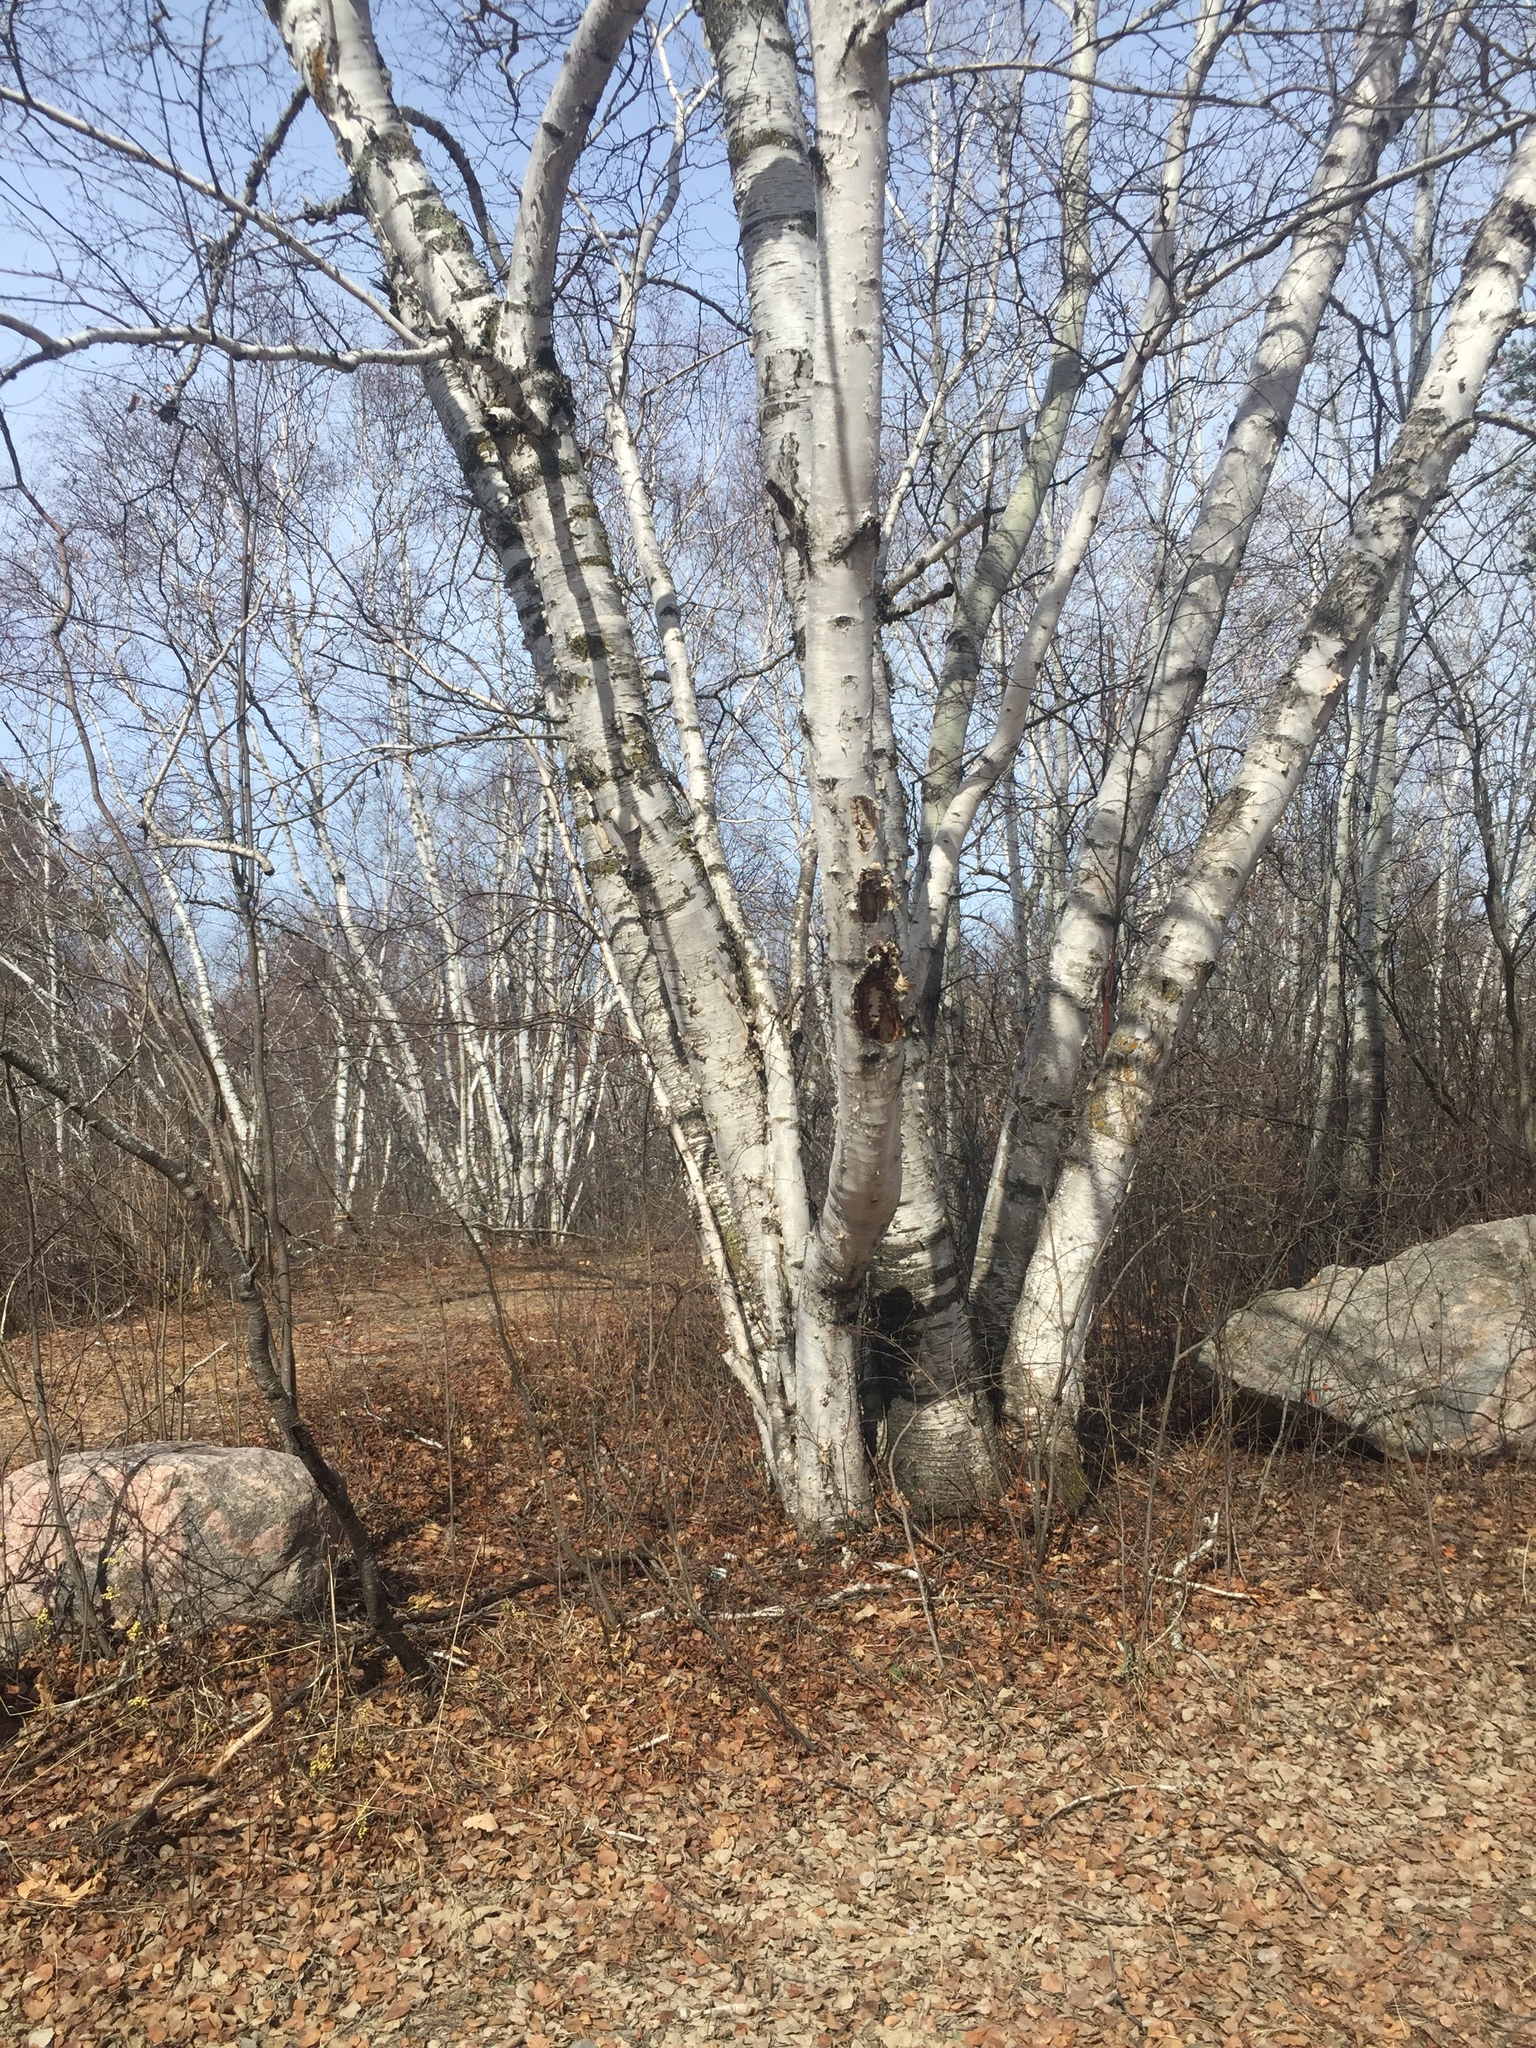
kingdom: Plantae
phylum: Tracheophyta
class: Magnoliopsida
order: Fagales
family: Betulaceae
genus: Betula
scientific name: Betula papyrifera
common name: Paper birch
